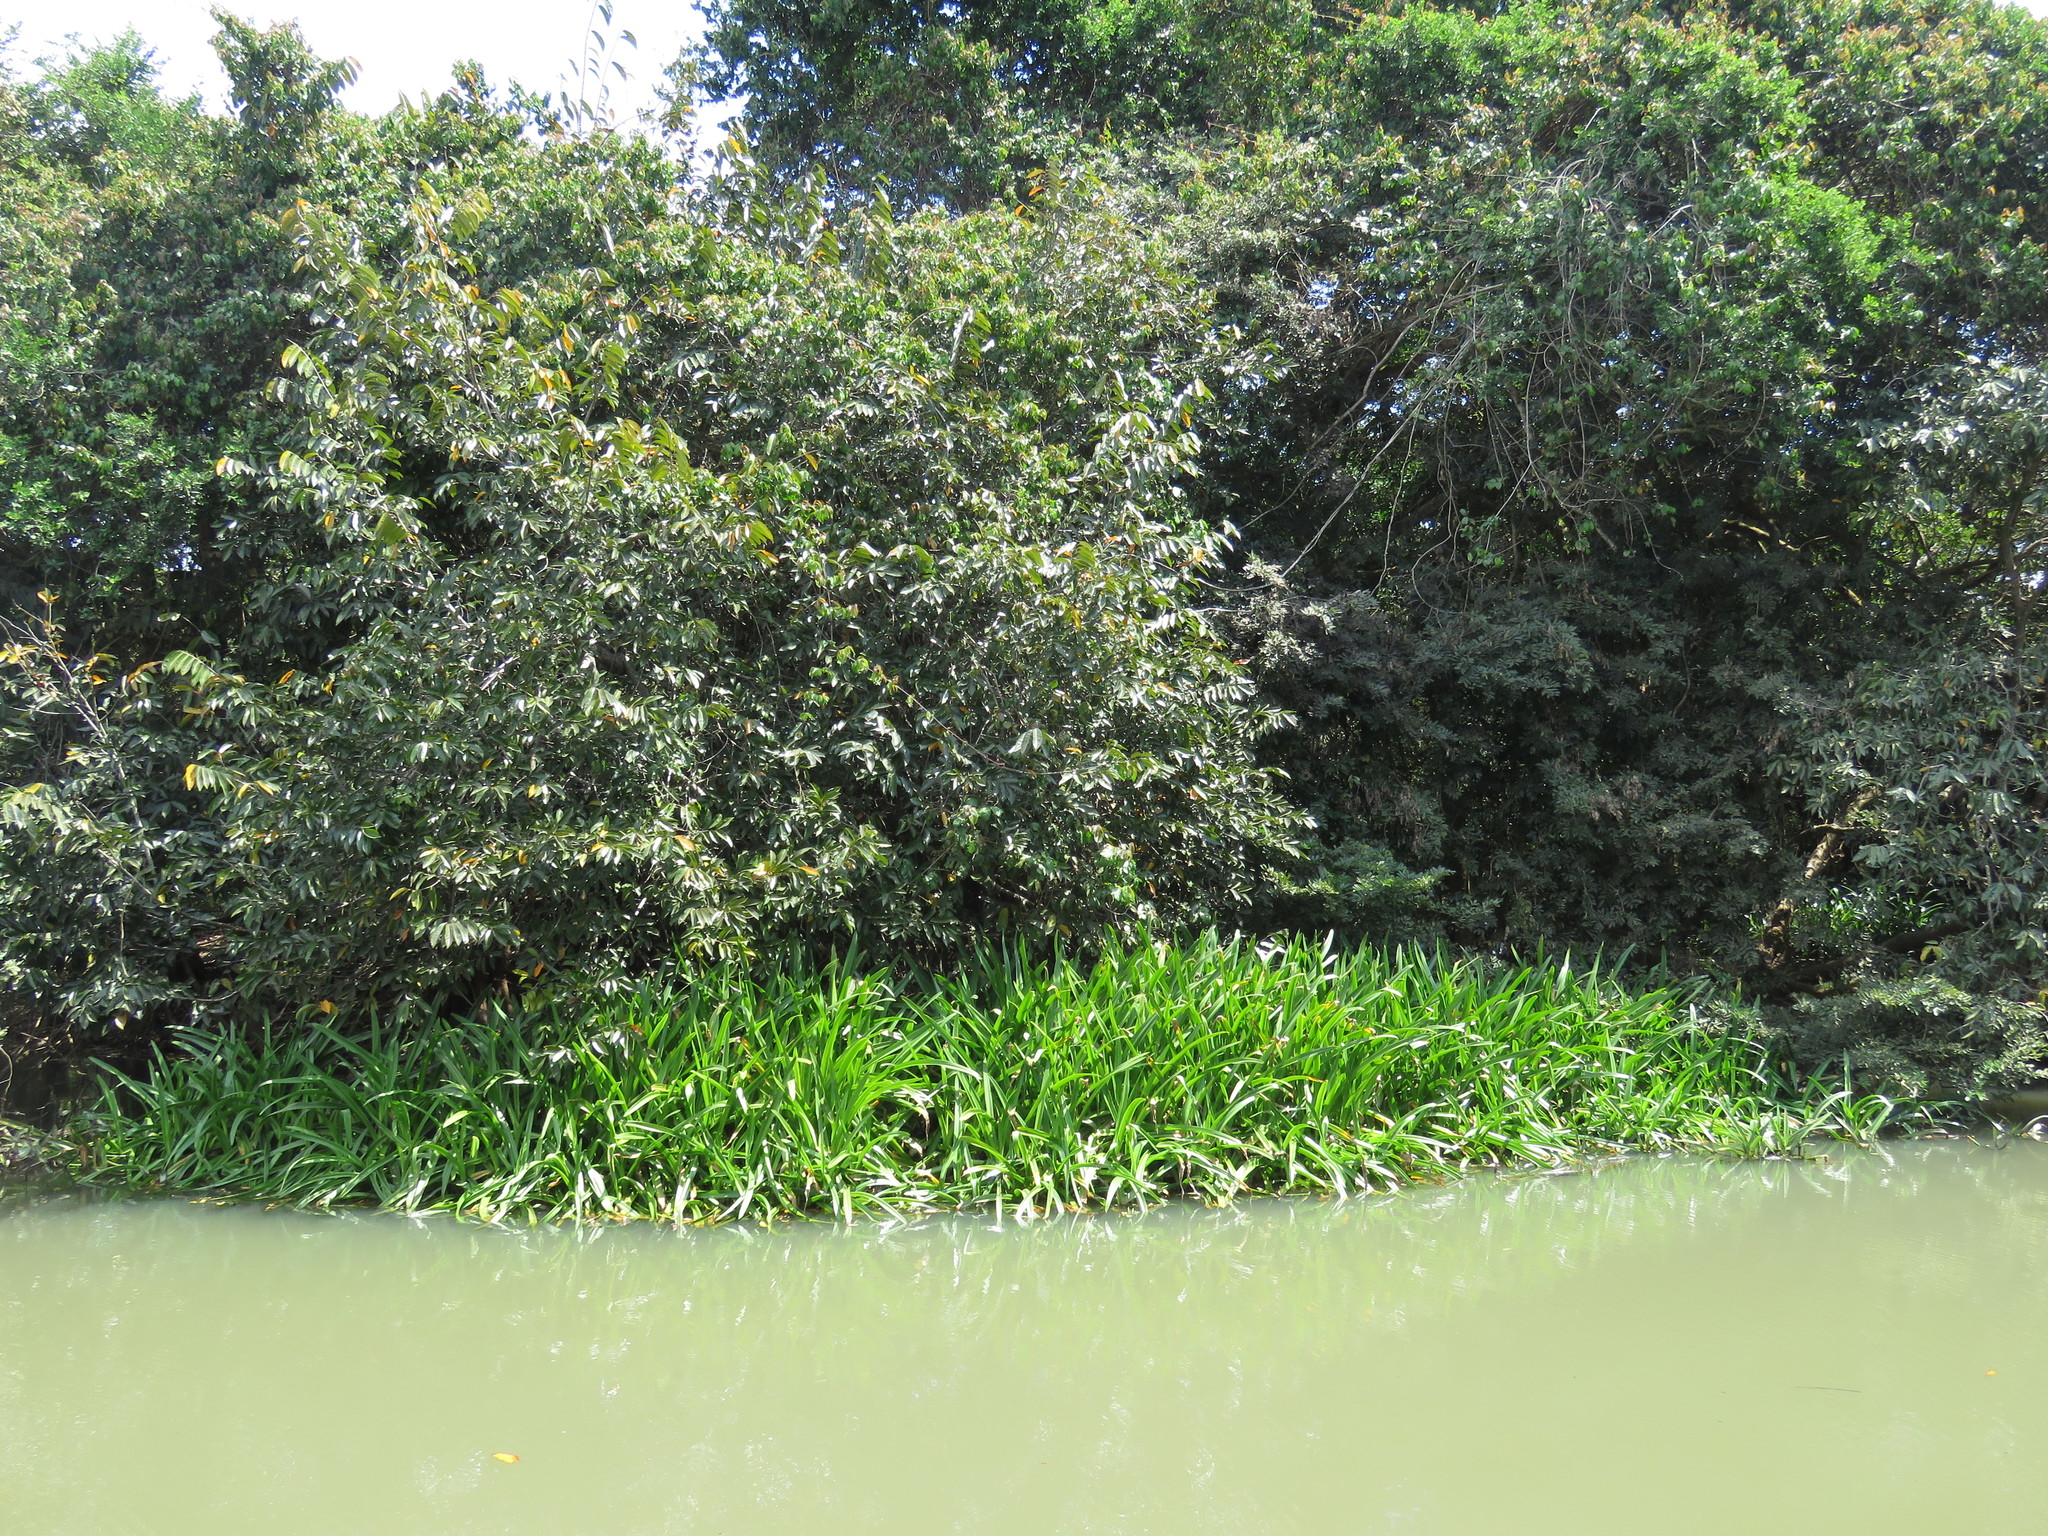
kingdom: Plantae
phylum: Tracheophyta
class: Liliopsida
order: Asparagales
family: Amaryllidaceae
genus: Hymenocallis
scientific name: Hymenocallis concinna
